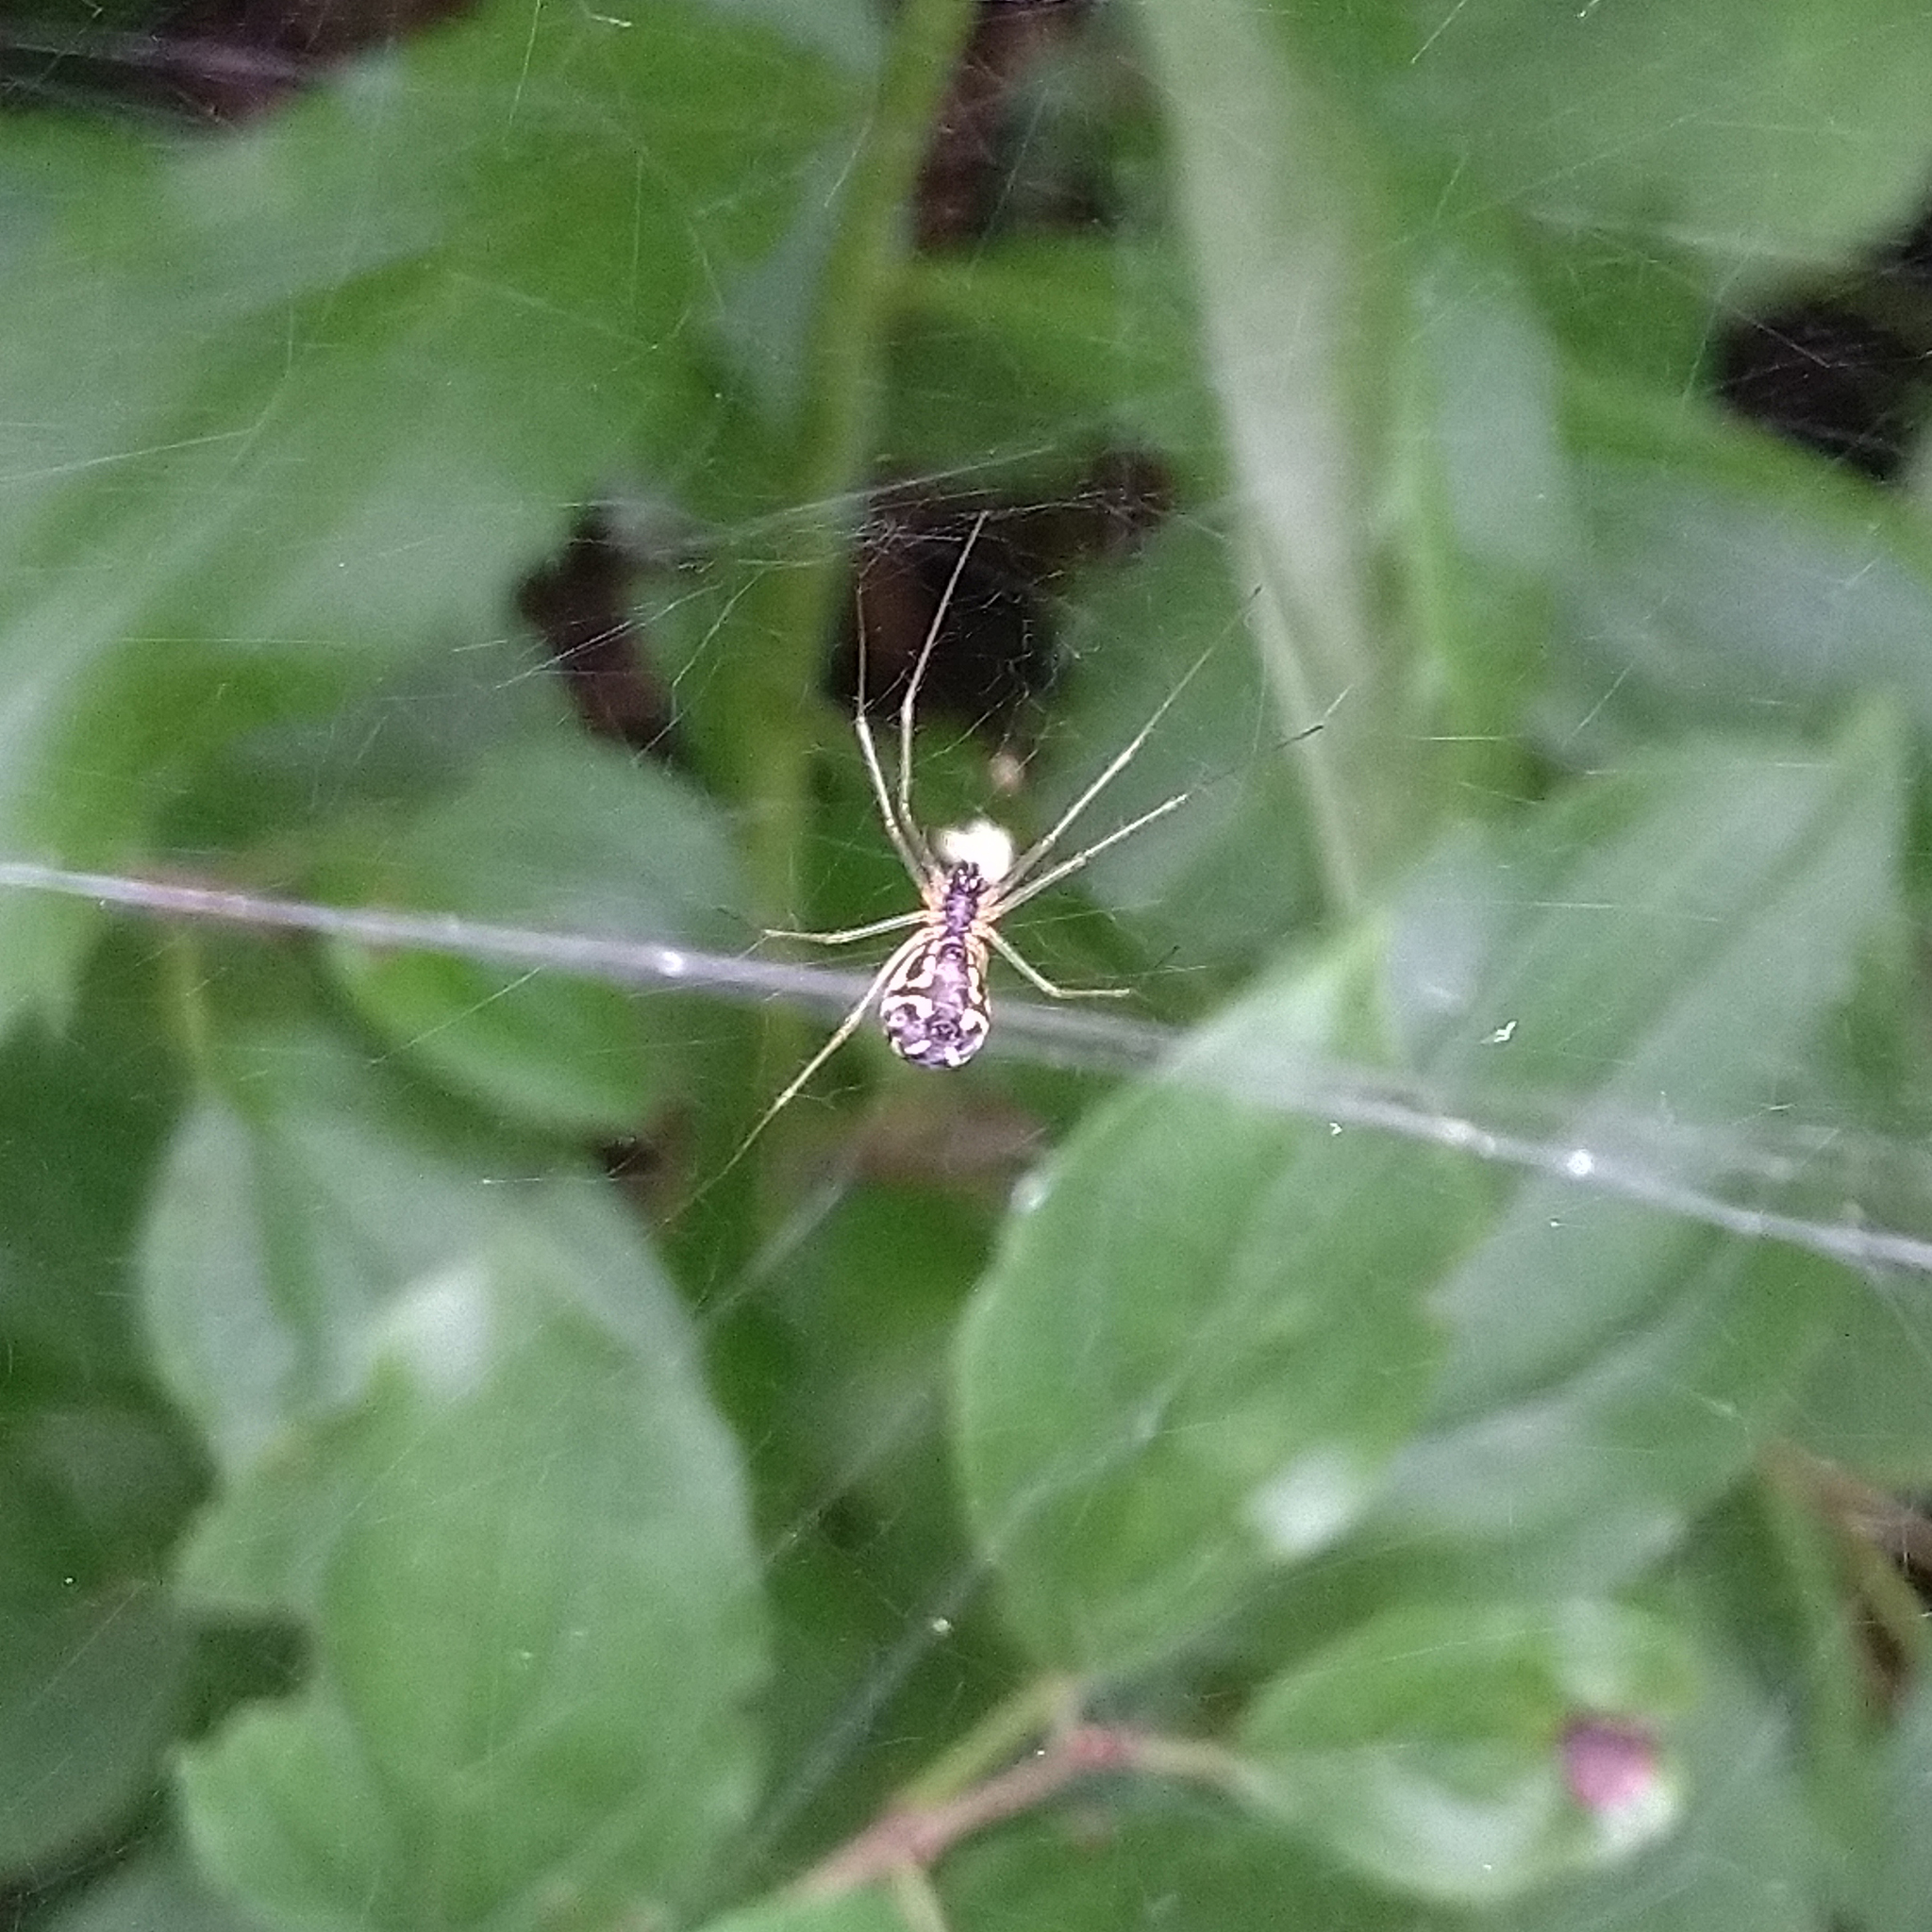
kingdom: Animalia
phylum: Arthropoda
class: Arachnida
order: Araneae
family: Linyphiidae
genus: Neriene
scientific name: Neriene radiata
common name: Filmy dome spider
